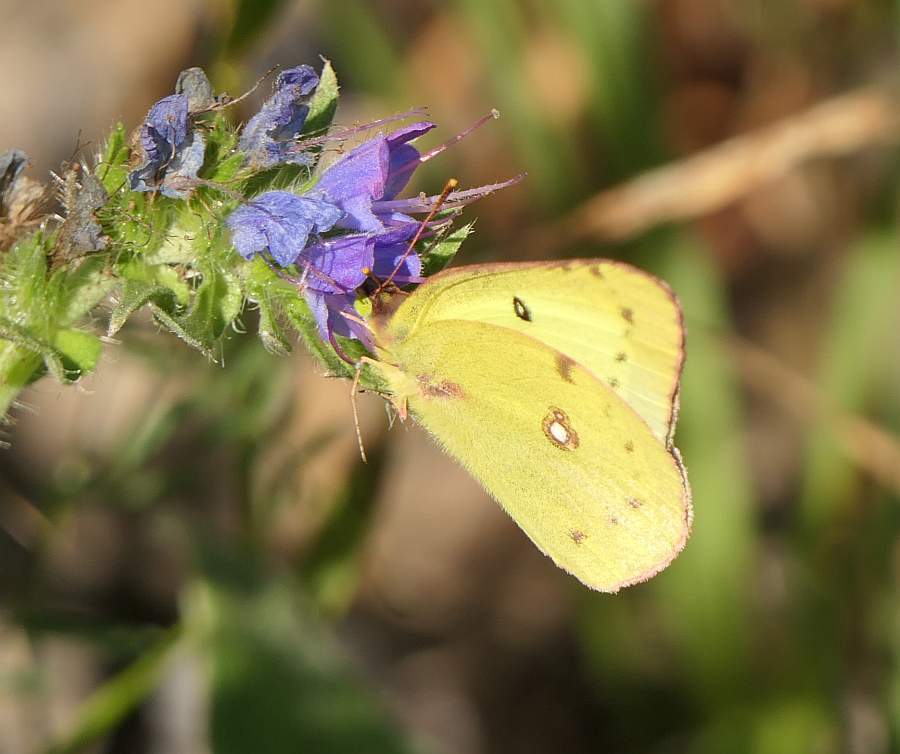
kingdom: Animalia
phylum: Arthropoda
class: Insecta
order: Lepidoptera
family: Pieridae
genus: Colias
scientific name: Colias philodice
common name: Clouded sulphur
